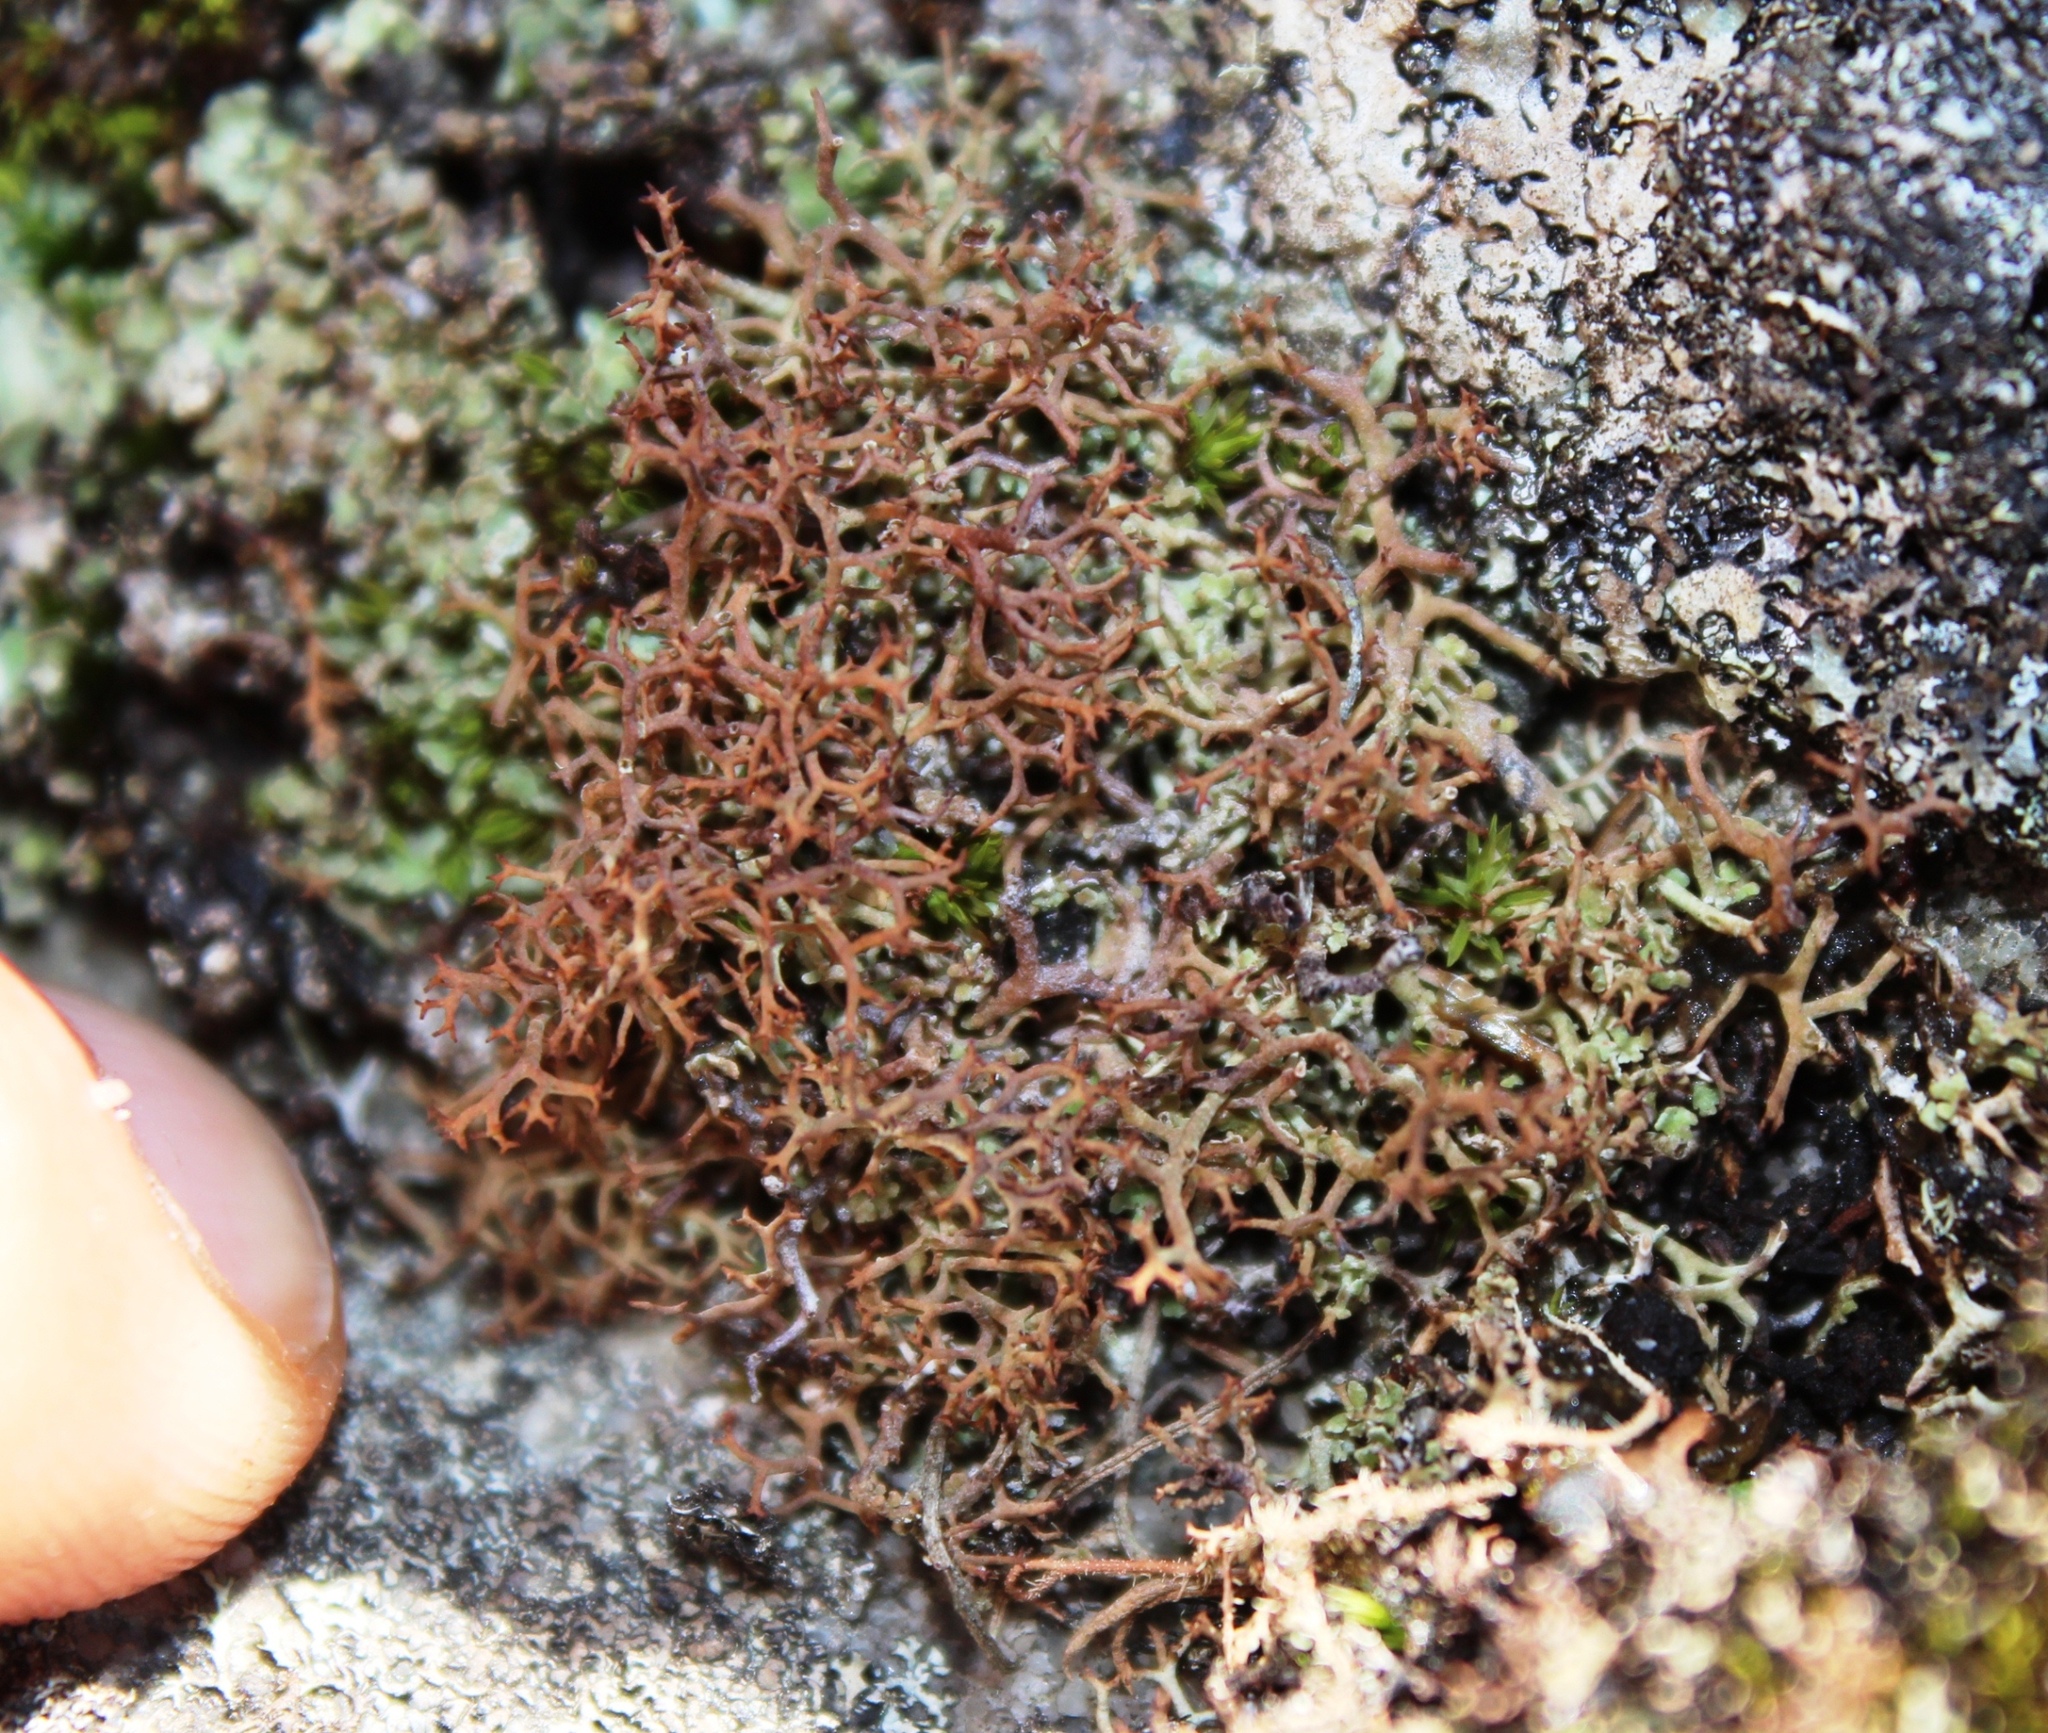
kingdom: Fungi
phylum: Ascomycota
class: Lecanoromycetes
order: Lecanorales
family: Cladoniaceae
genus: Cladonia
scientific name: Cladonia
